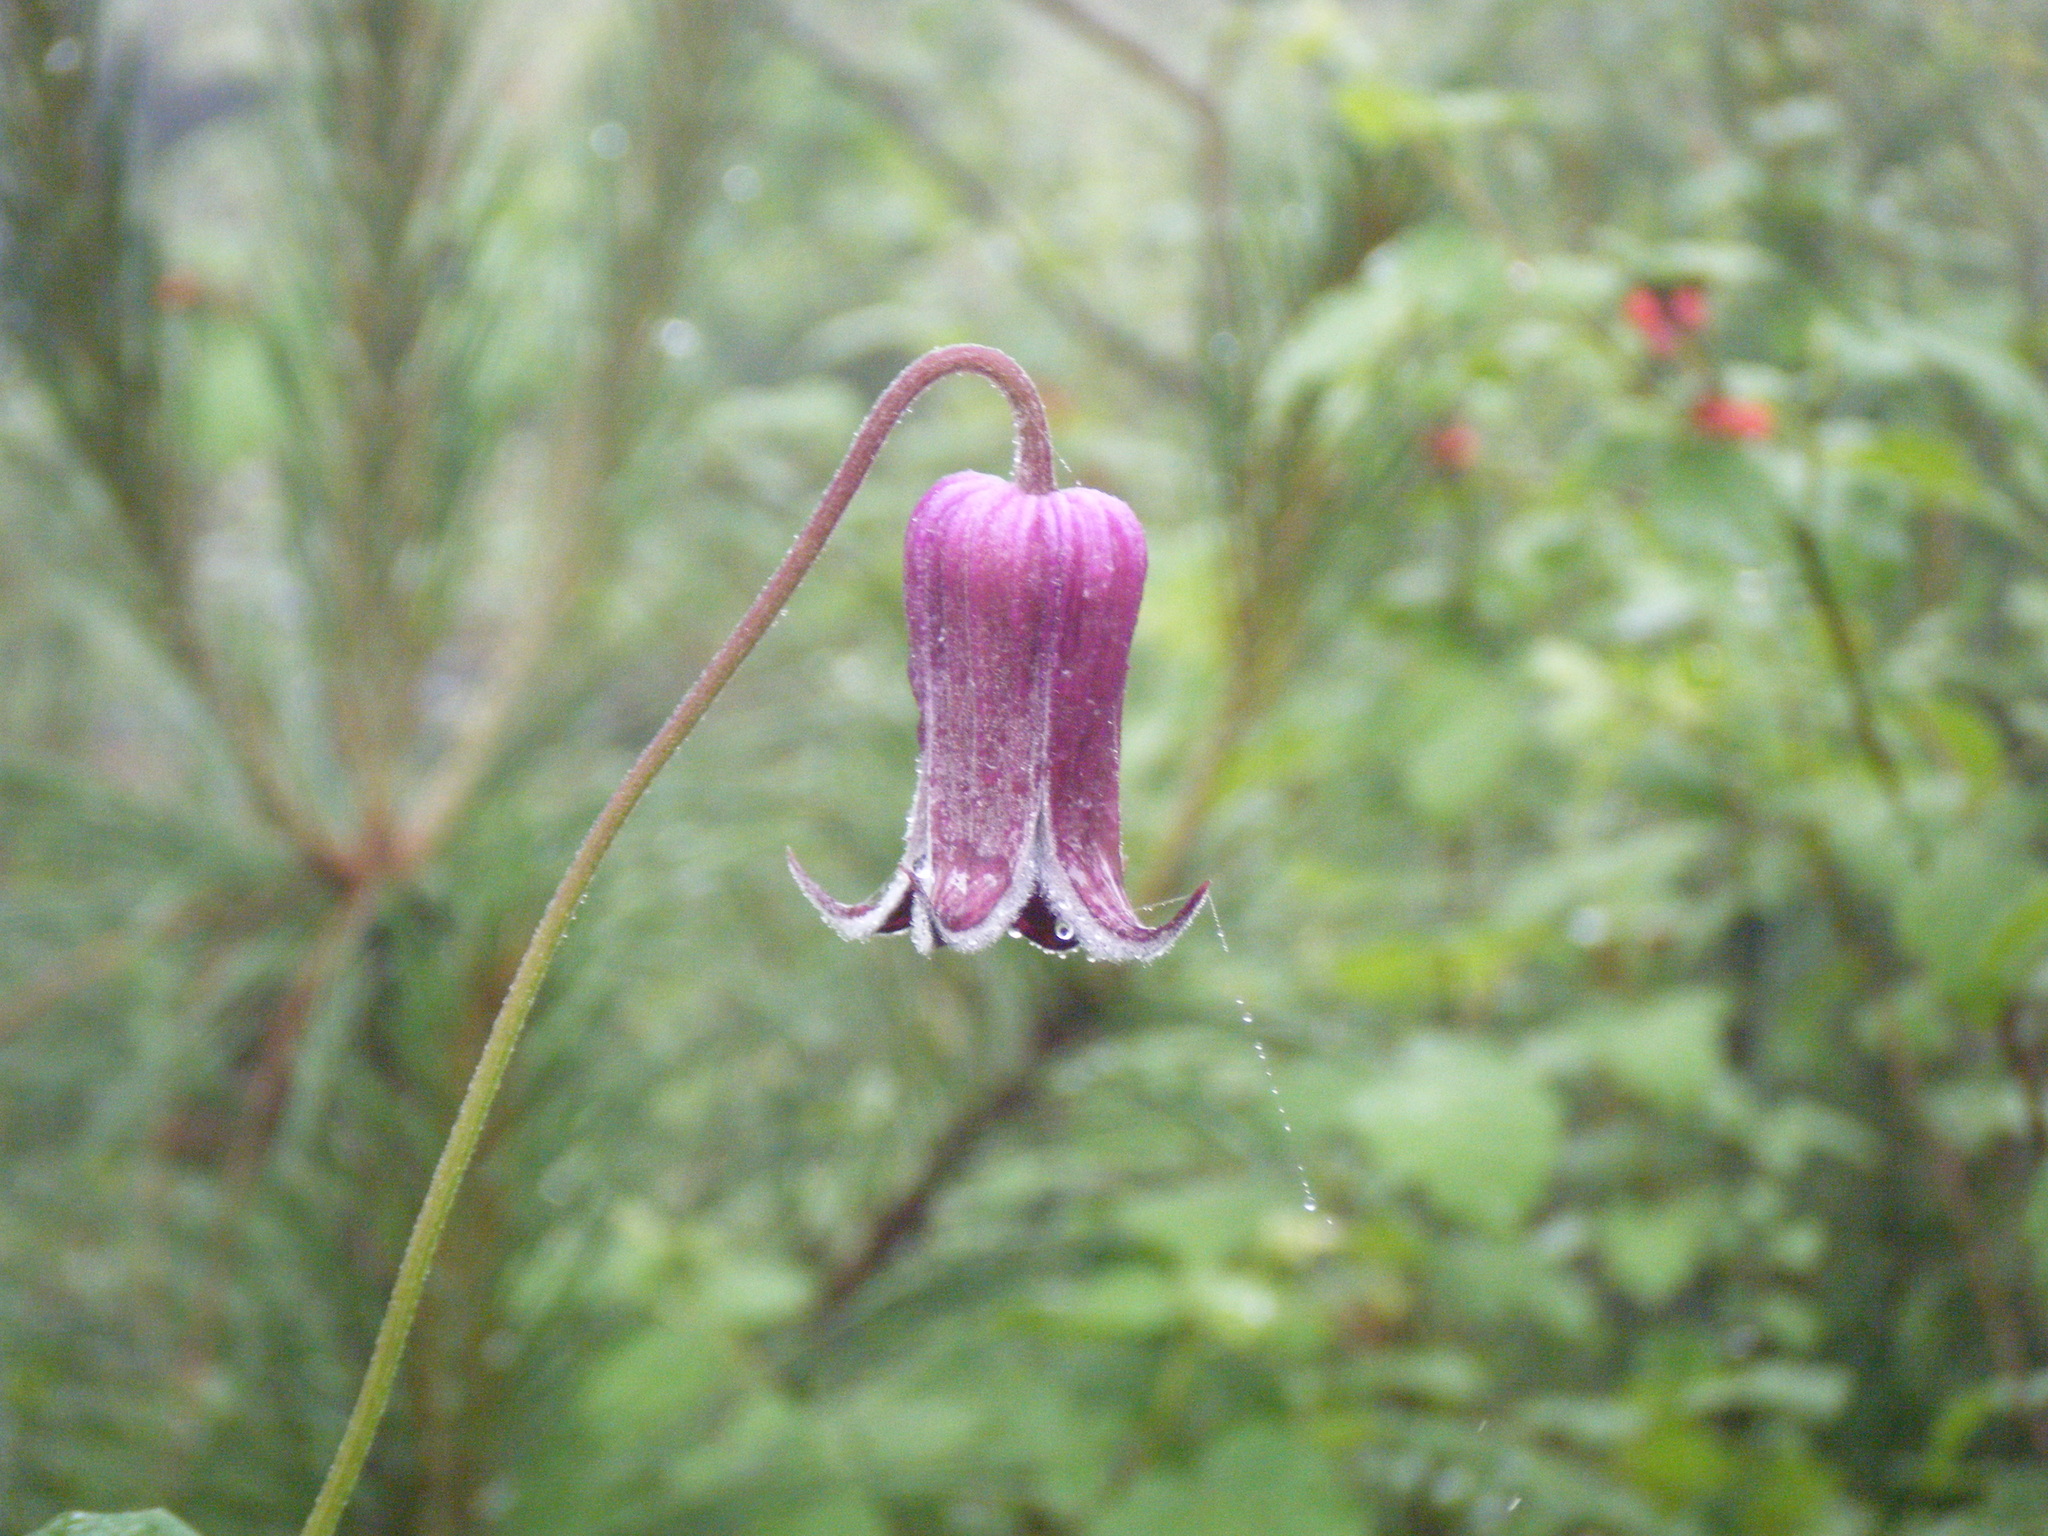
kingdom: Plantae
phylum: Tracheophyta
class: Magnoliopsida
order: Ranunculales
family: Ranunculaceae
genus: Clematis
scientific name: Clematis pitcheri
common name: Bellflower clematis
